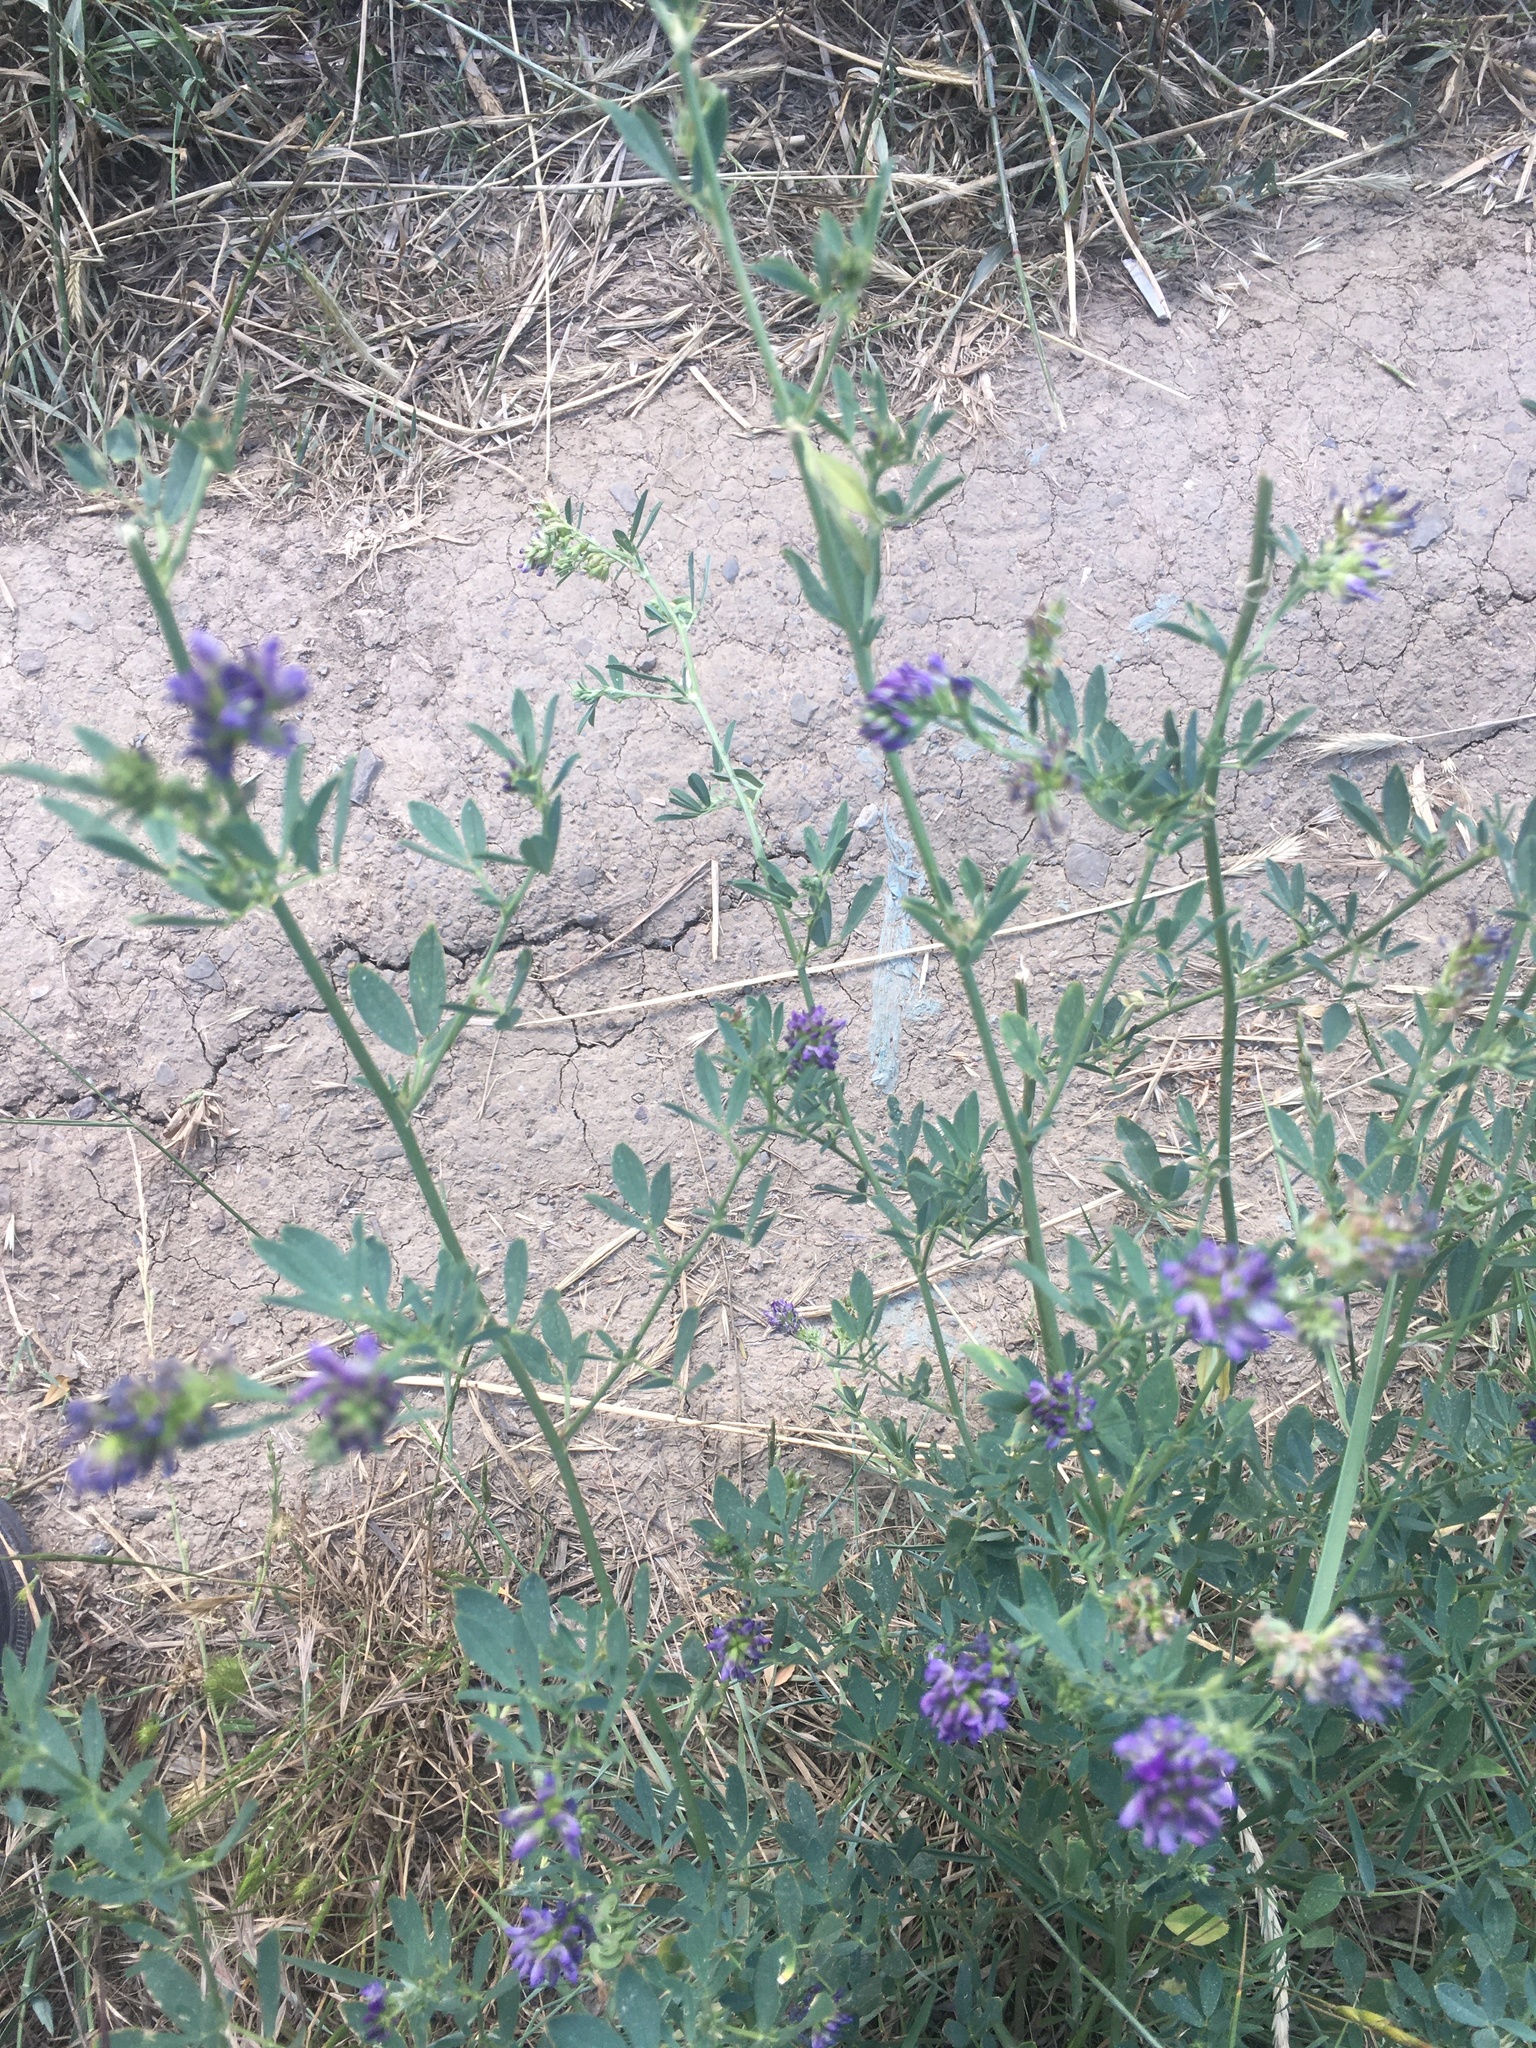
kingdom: Plantae
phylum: Tracheophyta
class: Magnoliopsida
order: Fabales
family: Fabaceae
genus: Medicago
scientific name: Medicago sativa
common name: Alfalfa
